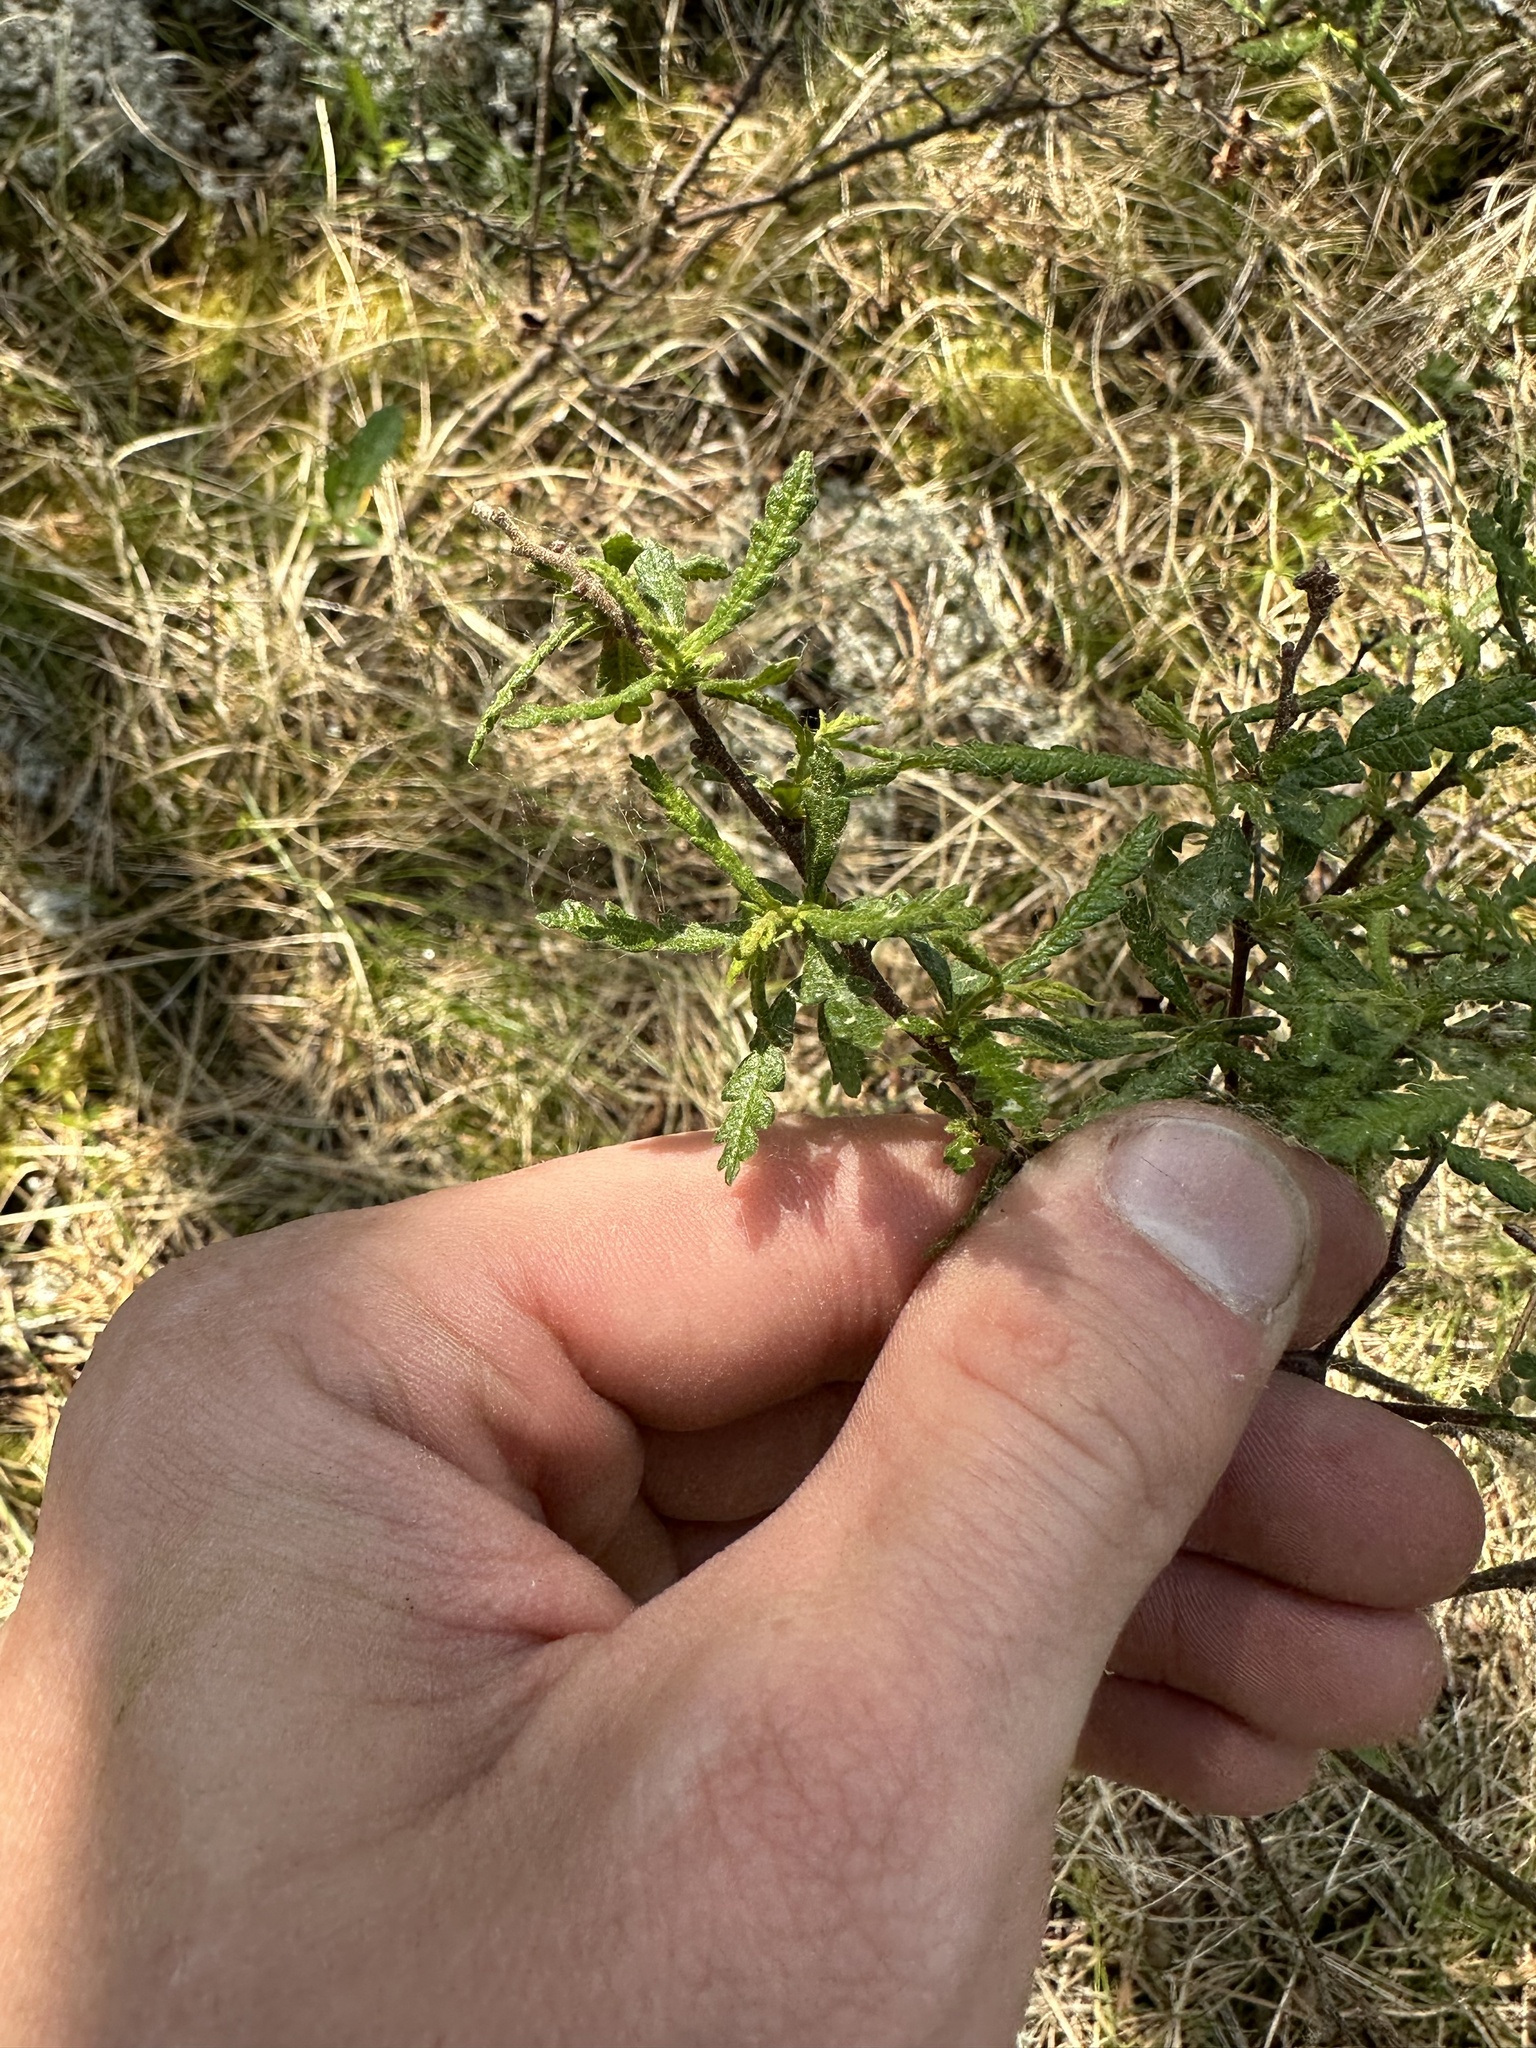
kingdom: Plantae
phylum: Tracheophyta
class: Magnoliopsida
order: Fagales
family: Myricaceae
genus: Comptonia
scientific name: Comptonia peregrina
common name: Sweet-fern
